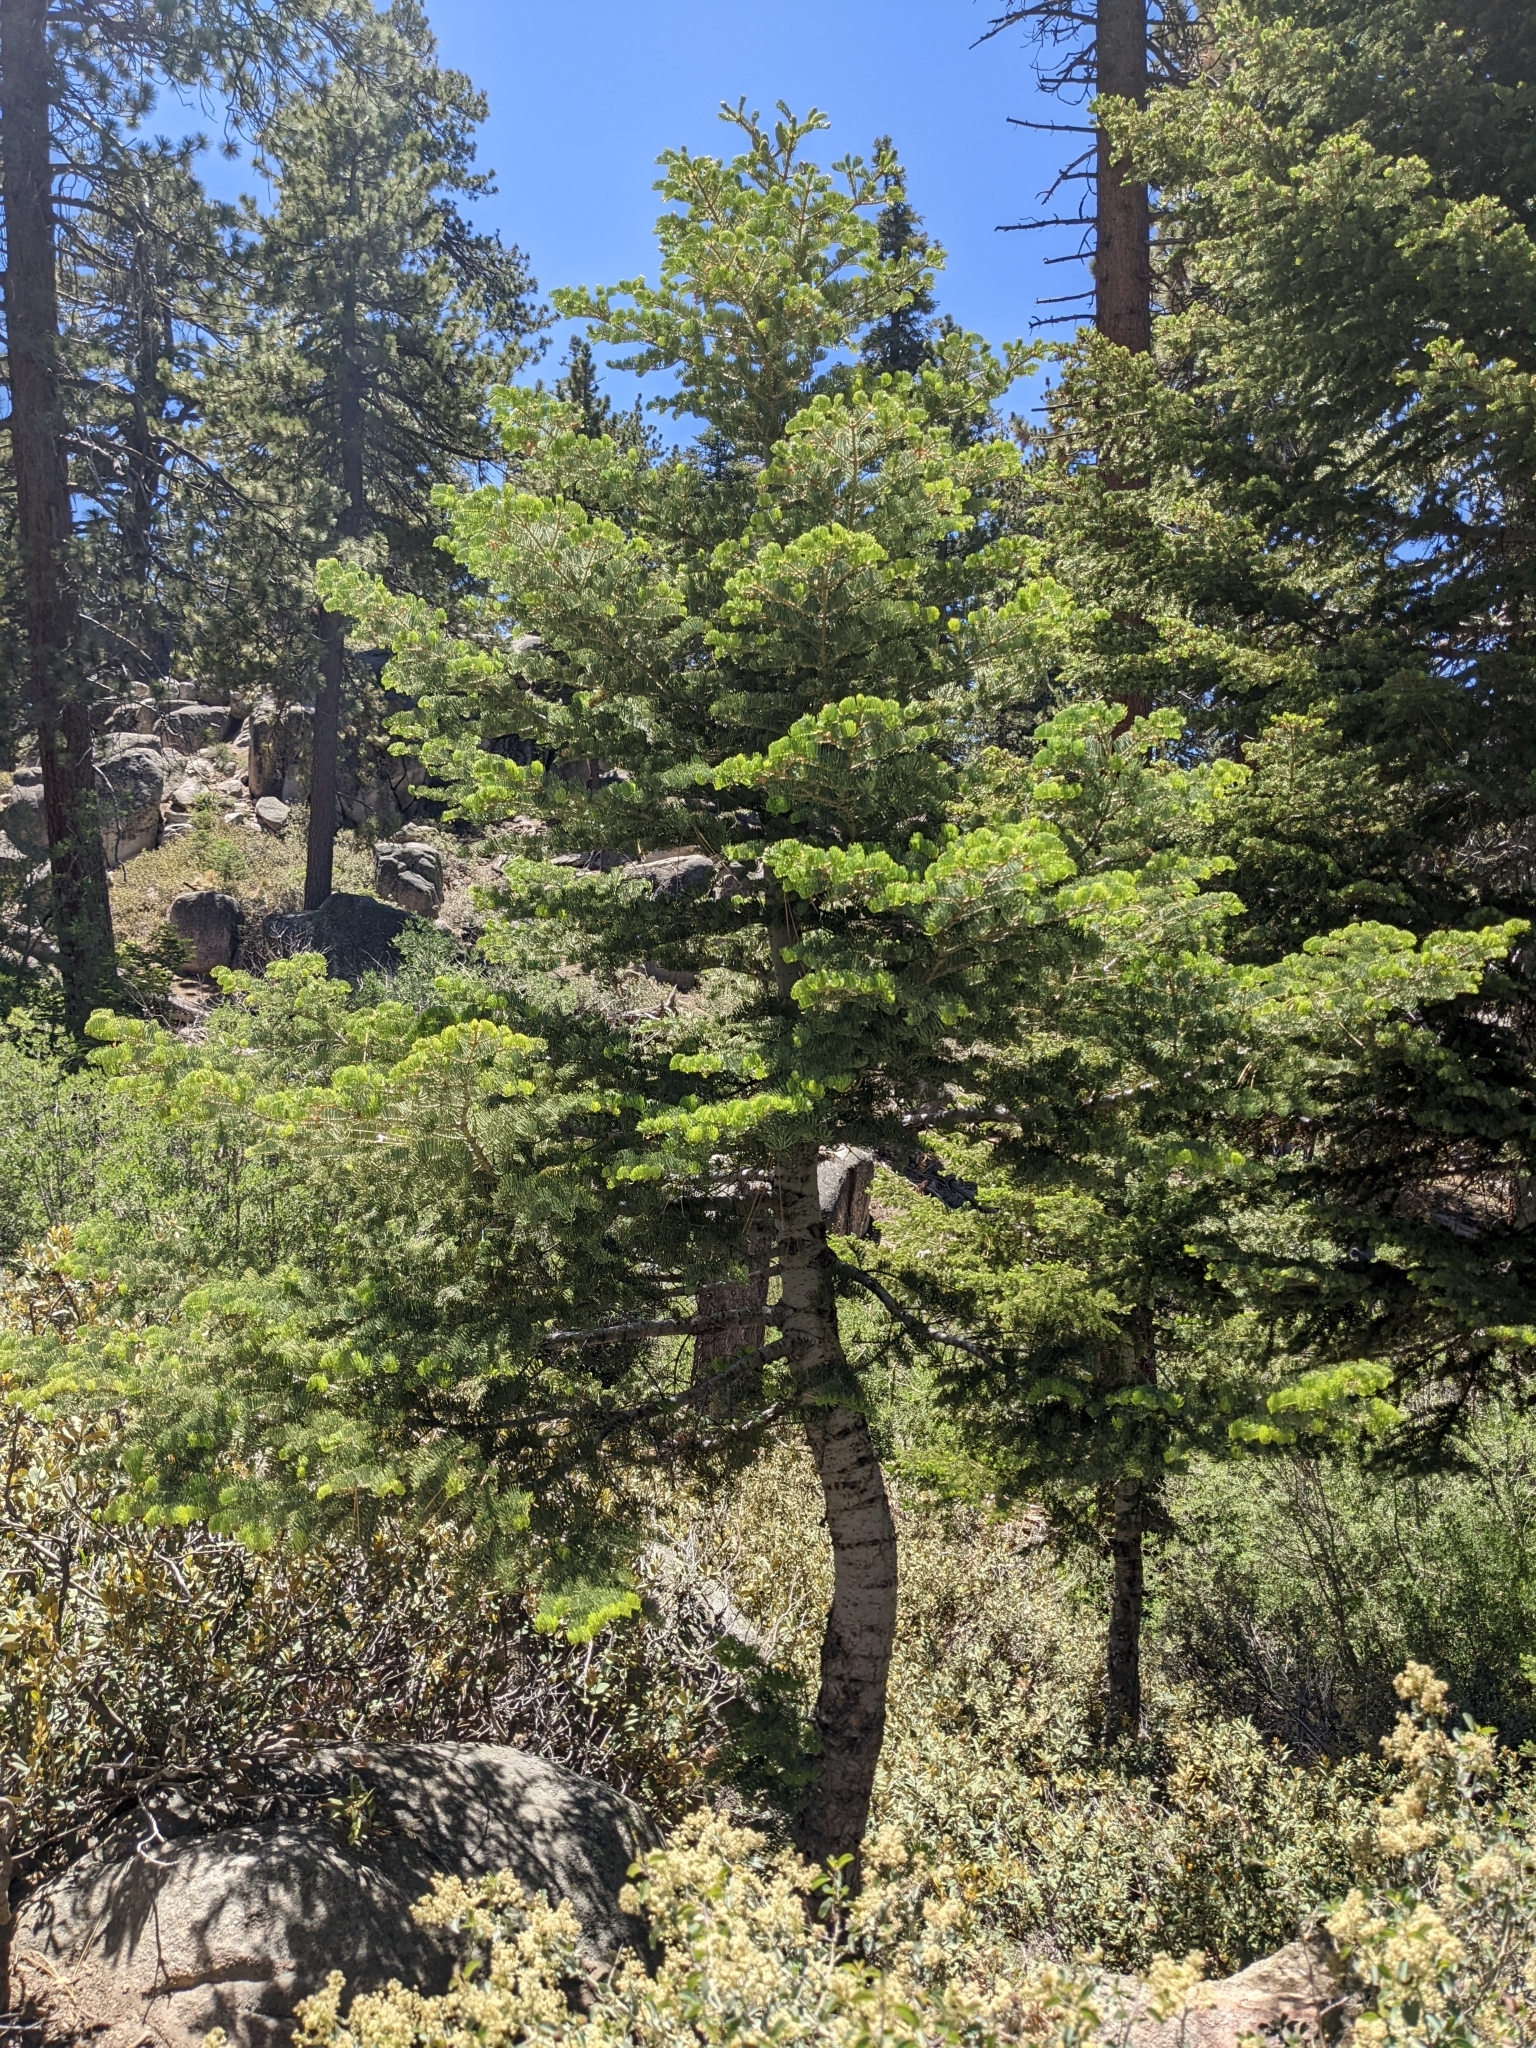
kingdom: Plantae
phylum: Tracheophyta
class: Pinopsida
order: Pinales
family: Pinaceae
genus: Abies
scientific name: Abies concolor
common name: Colorado fir
